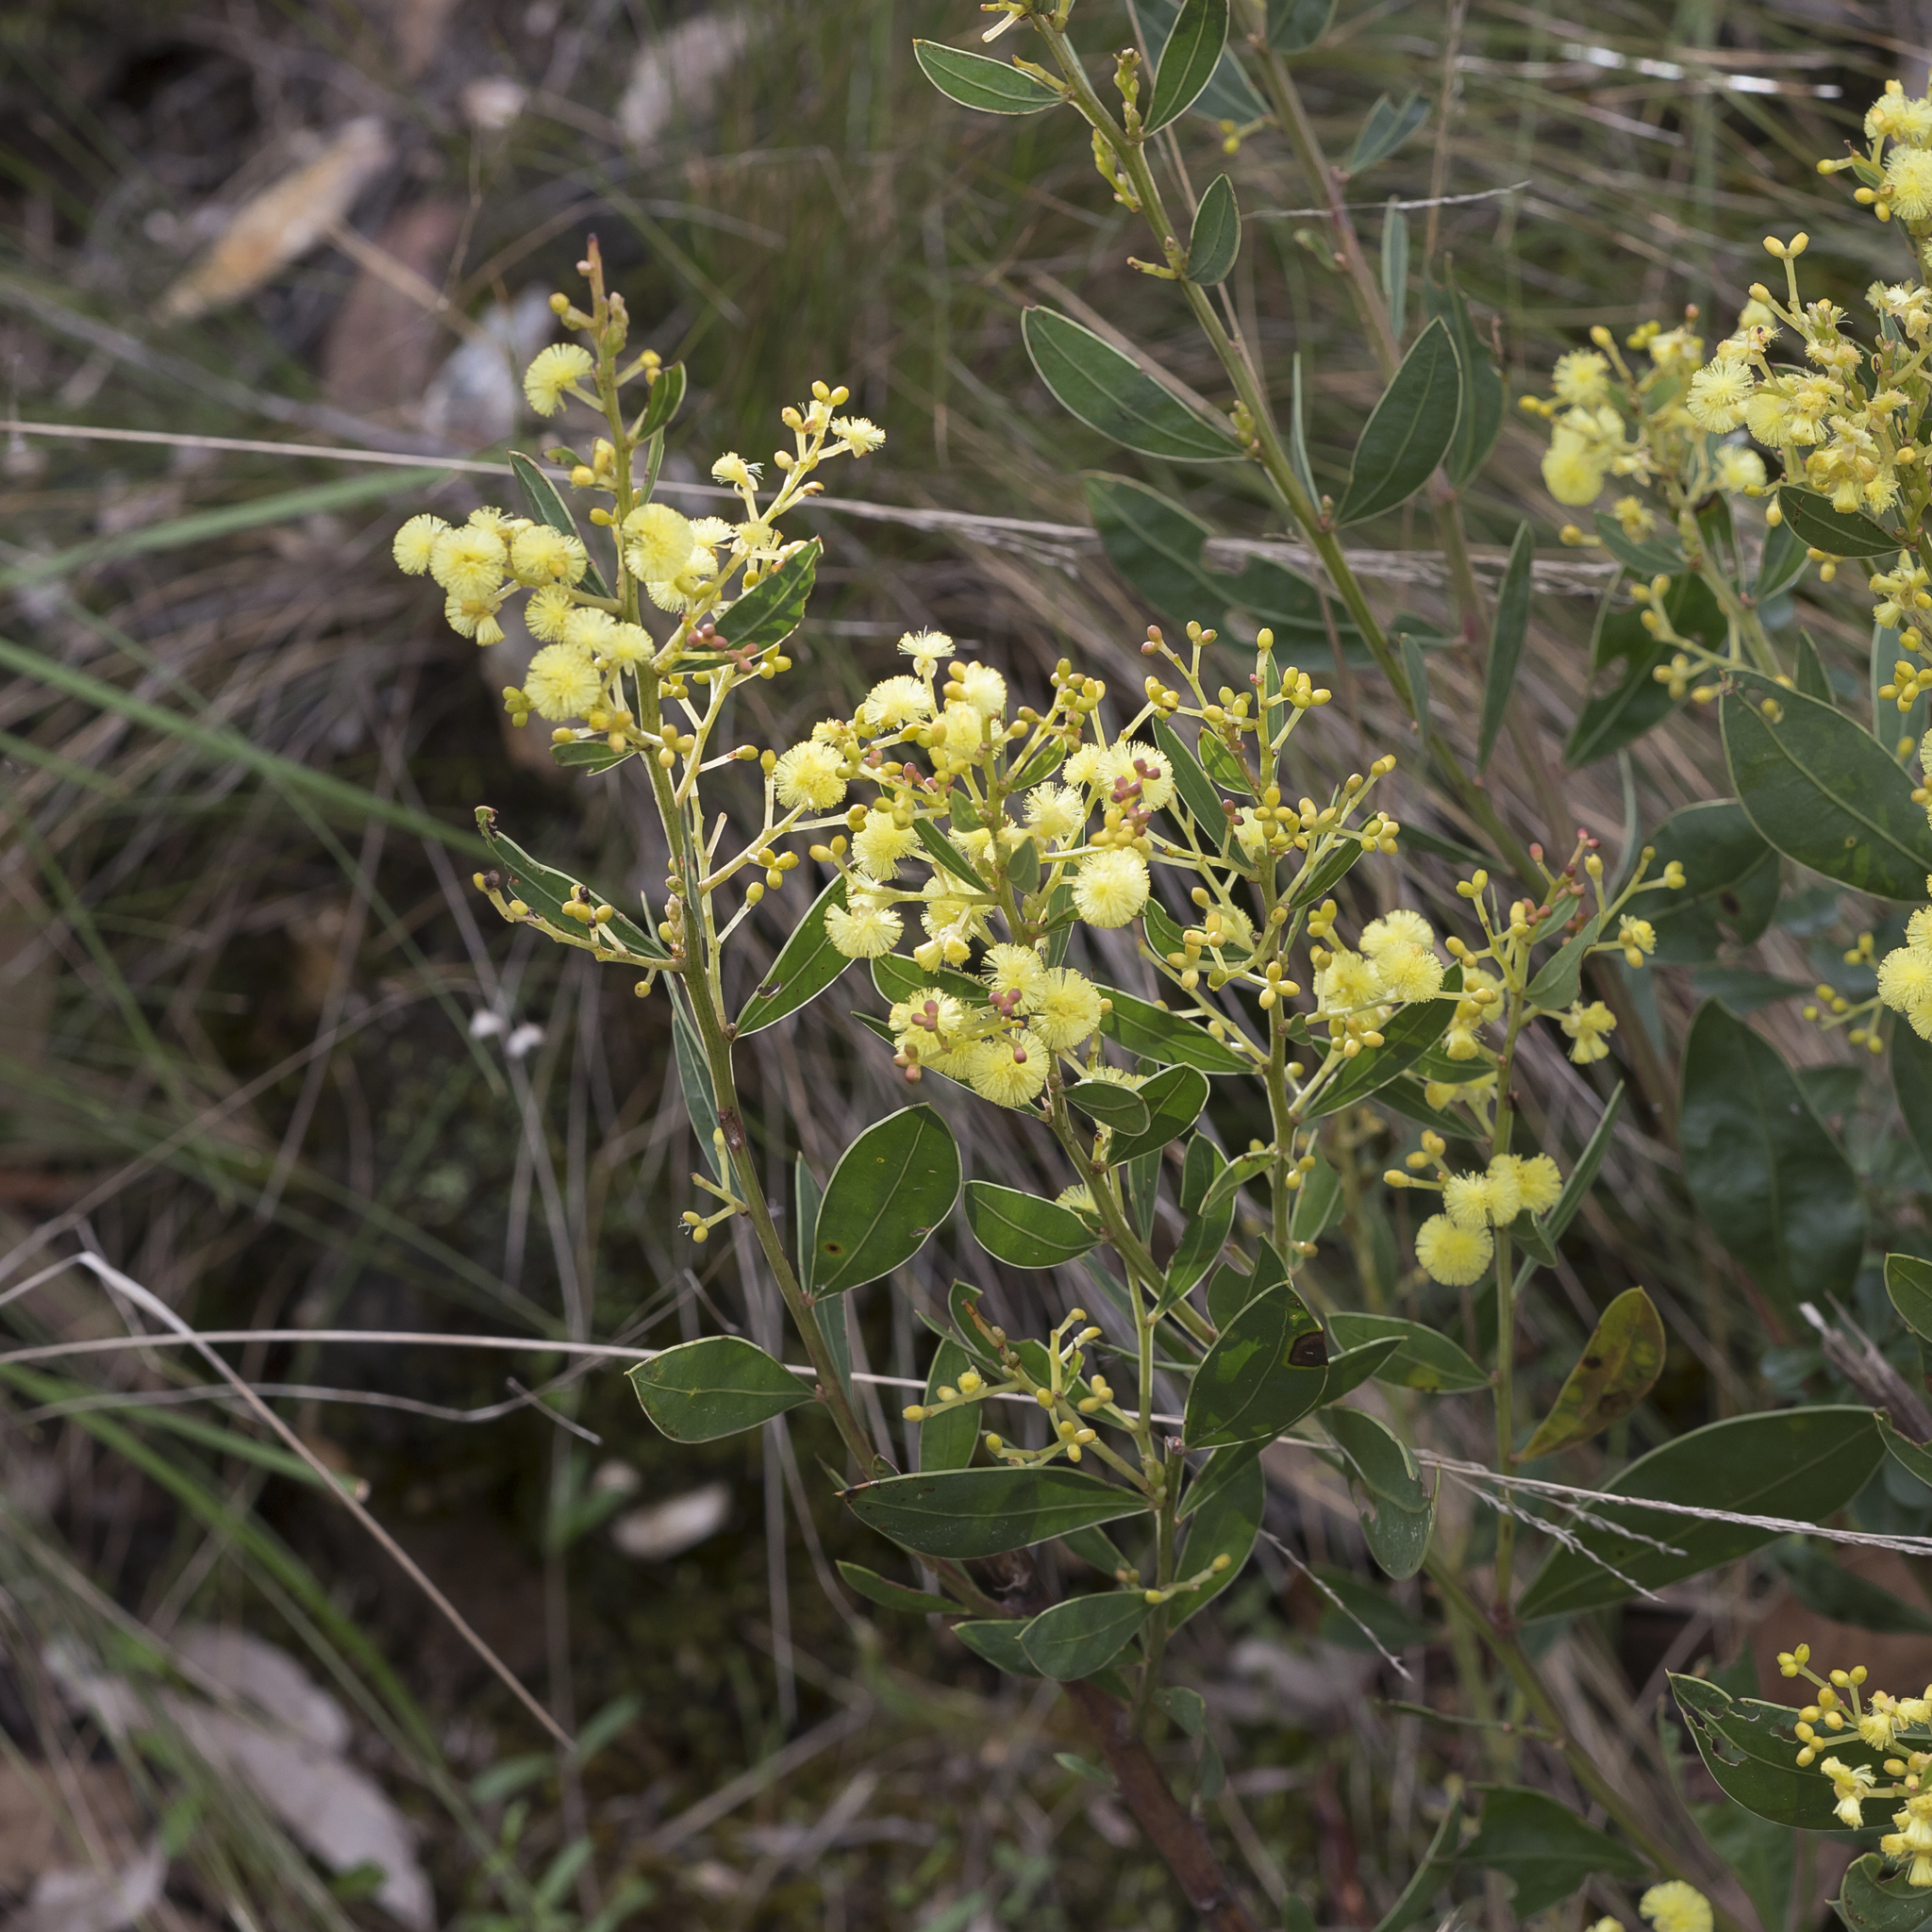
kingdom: Plantae
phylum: Tracheophyta
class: Magnoliopsida
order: Fabales
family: Fabaceae
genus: Acacia
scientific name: Acacia myrtifolia
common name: Myrtle wattle
